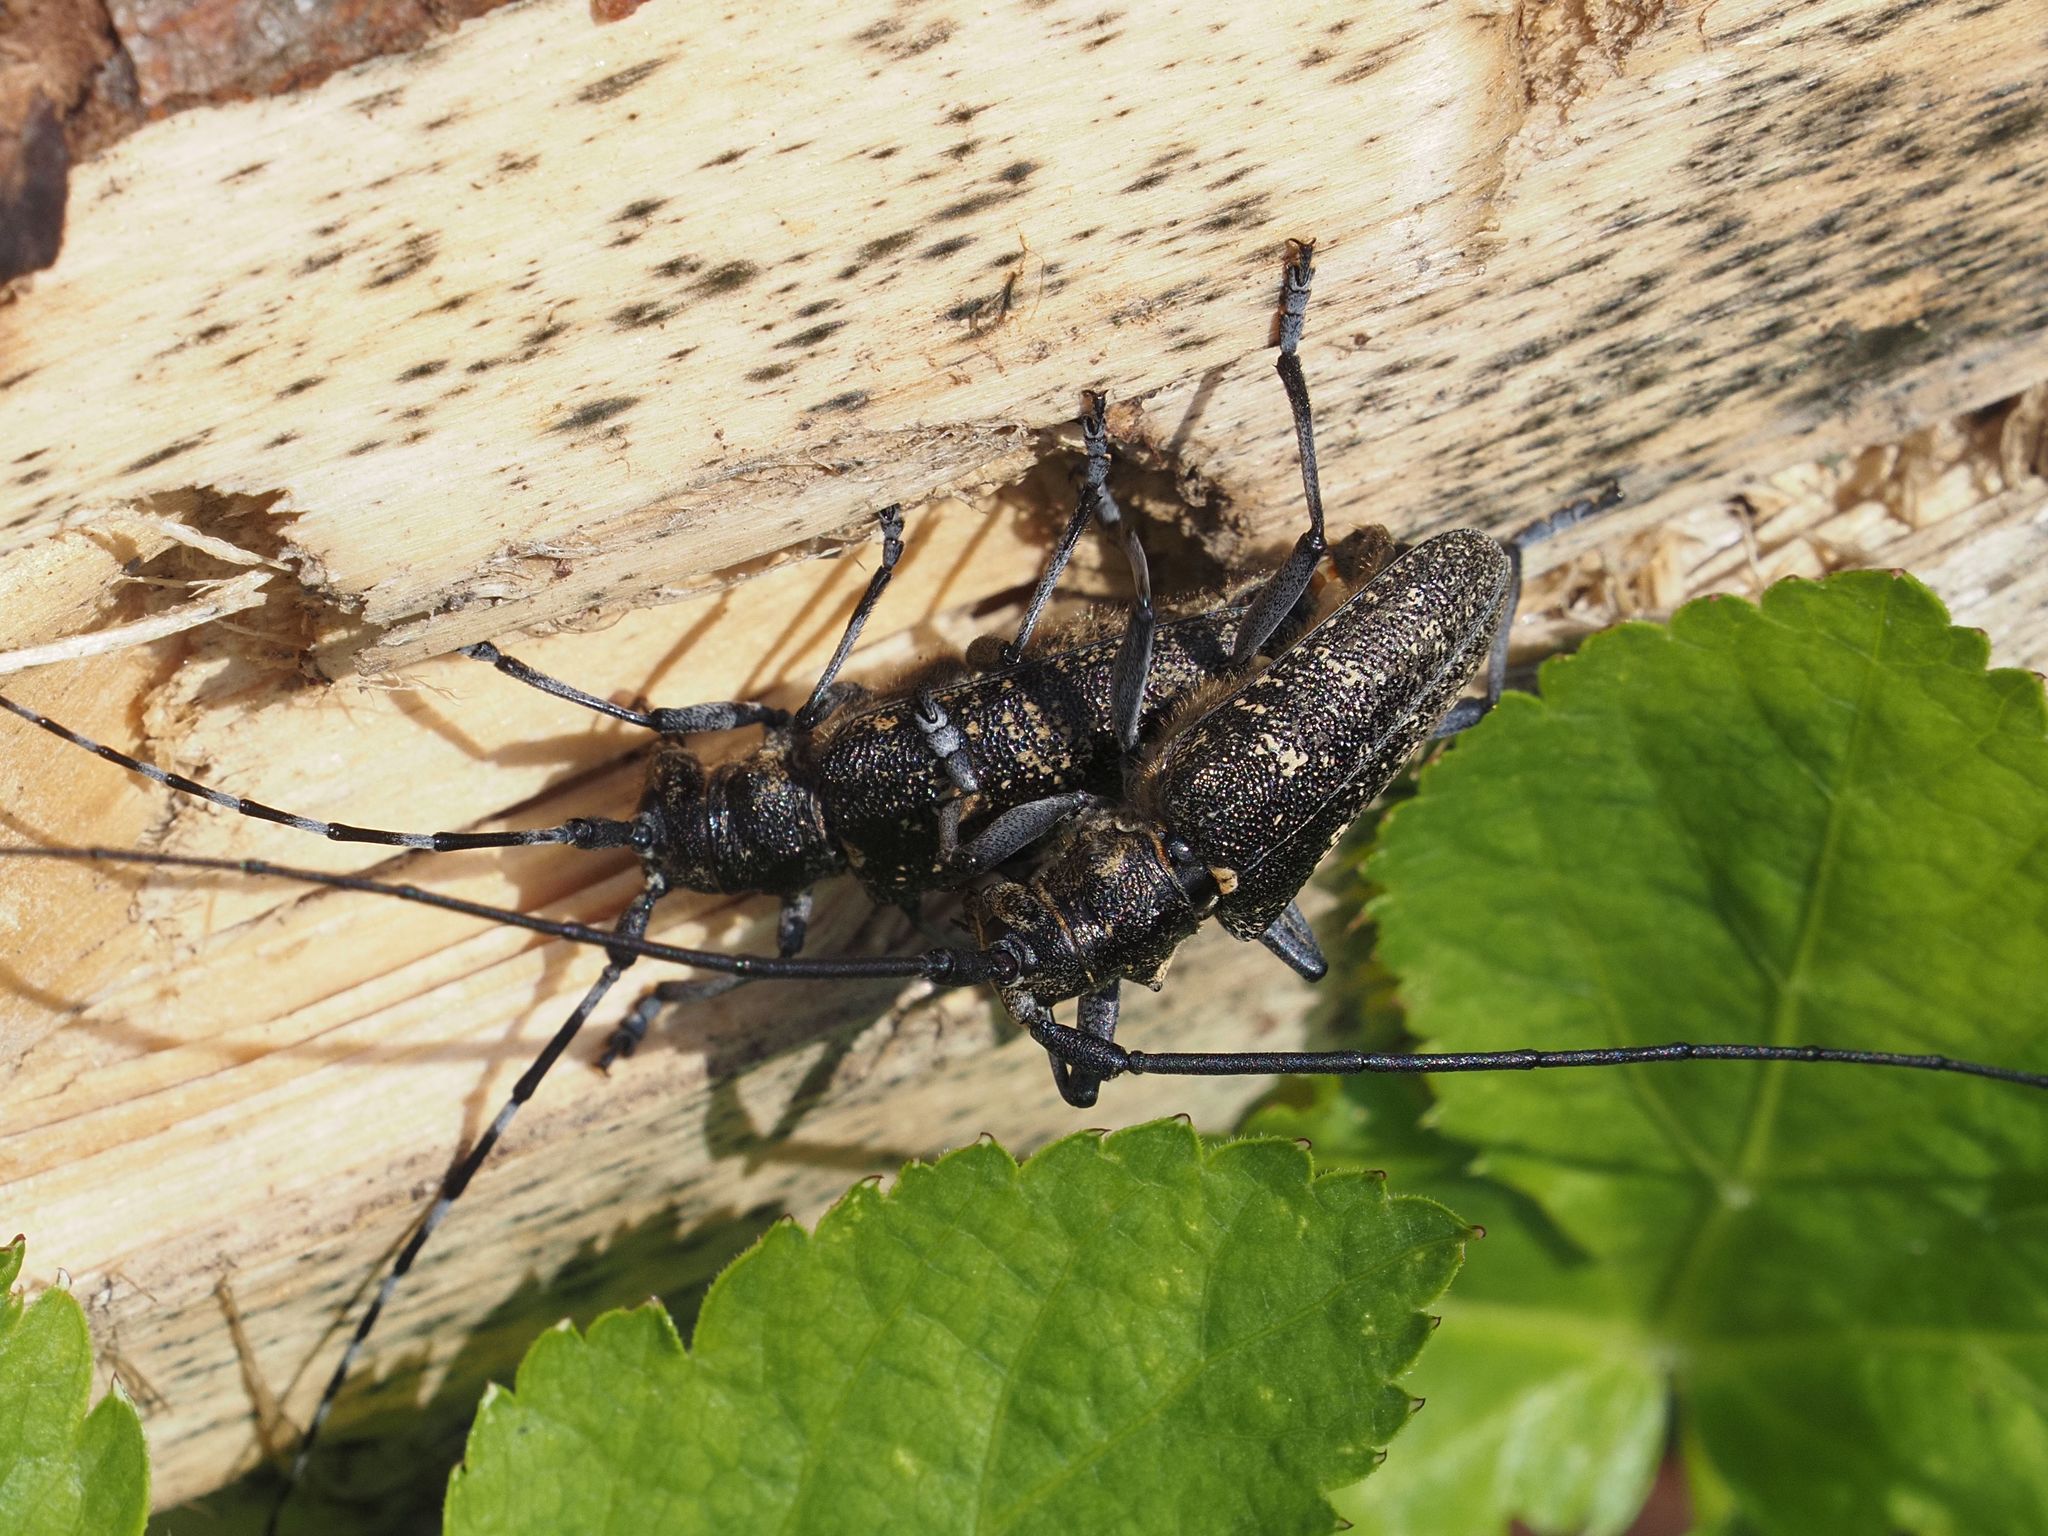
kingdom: Animalia
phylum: Arthropoda
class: Insecta
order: Coleoptera
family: Cerambycidae
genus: Monochamus
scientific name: Monochamus sutor
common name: Pine sawyer
